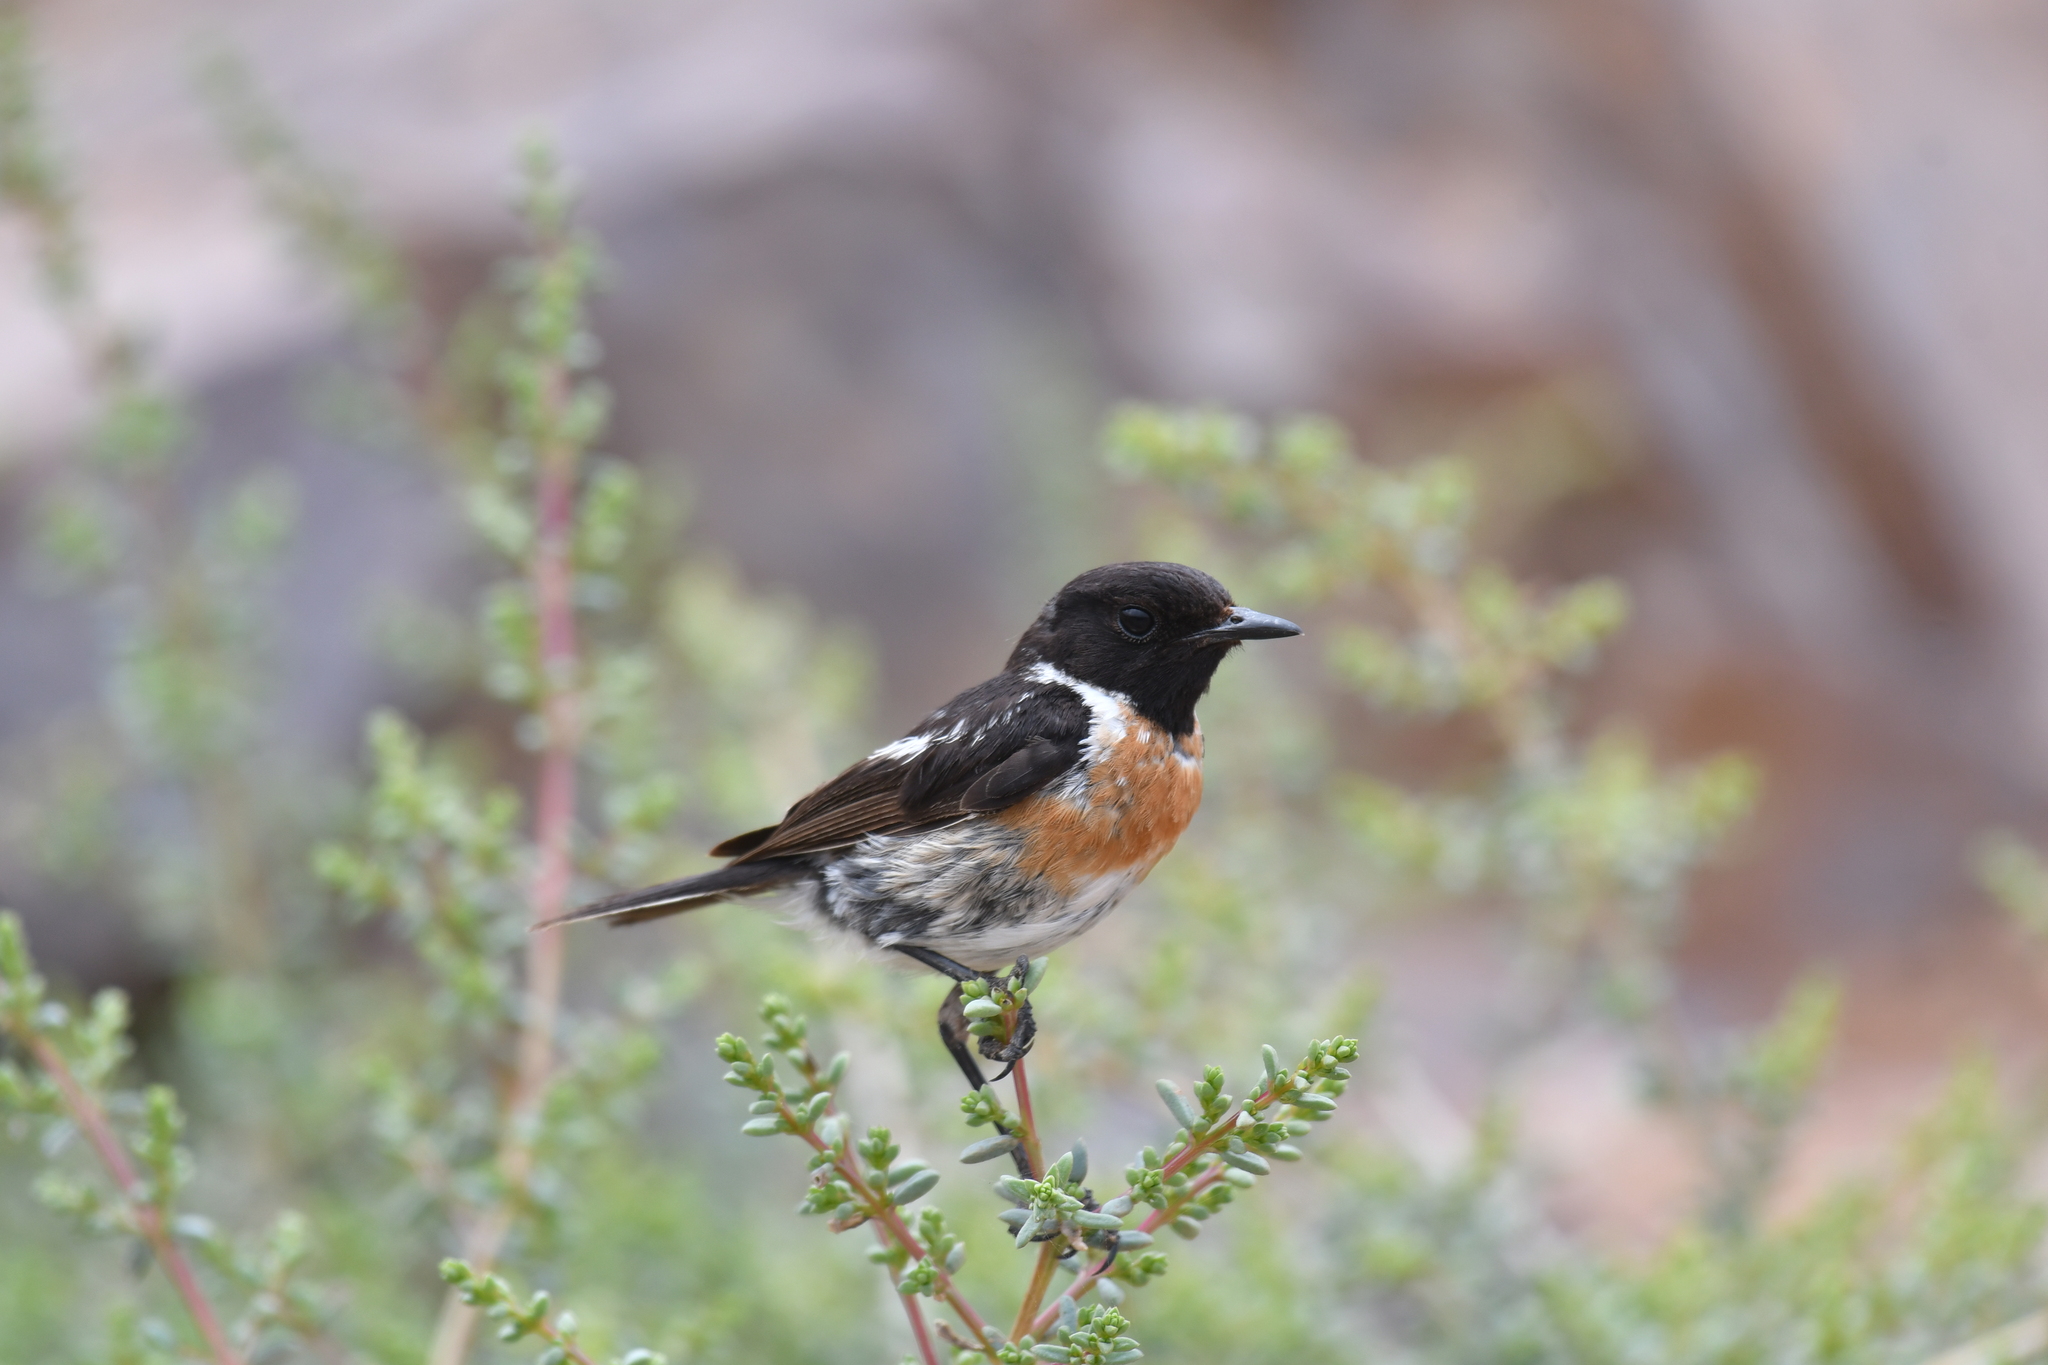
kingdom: Animalia
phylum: Chordata
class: Aves
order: Passeriformes
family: Muscicapidae
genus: Saxicola
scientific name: Saxicola rubicola
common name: European stonechat
